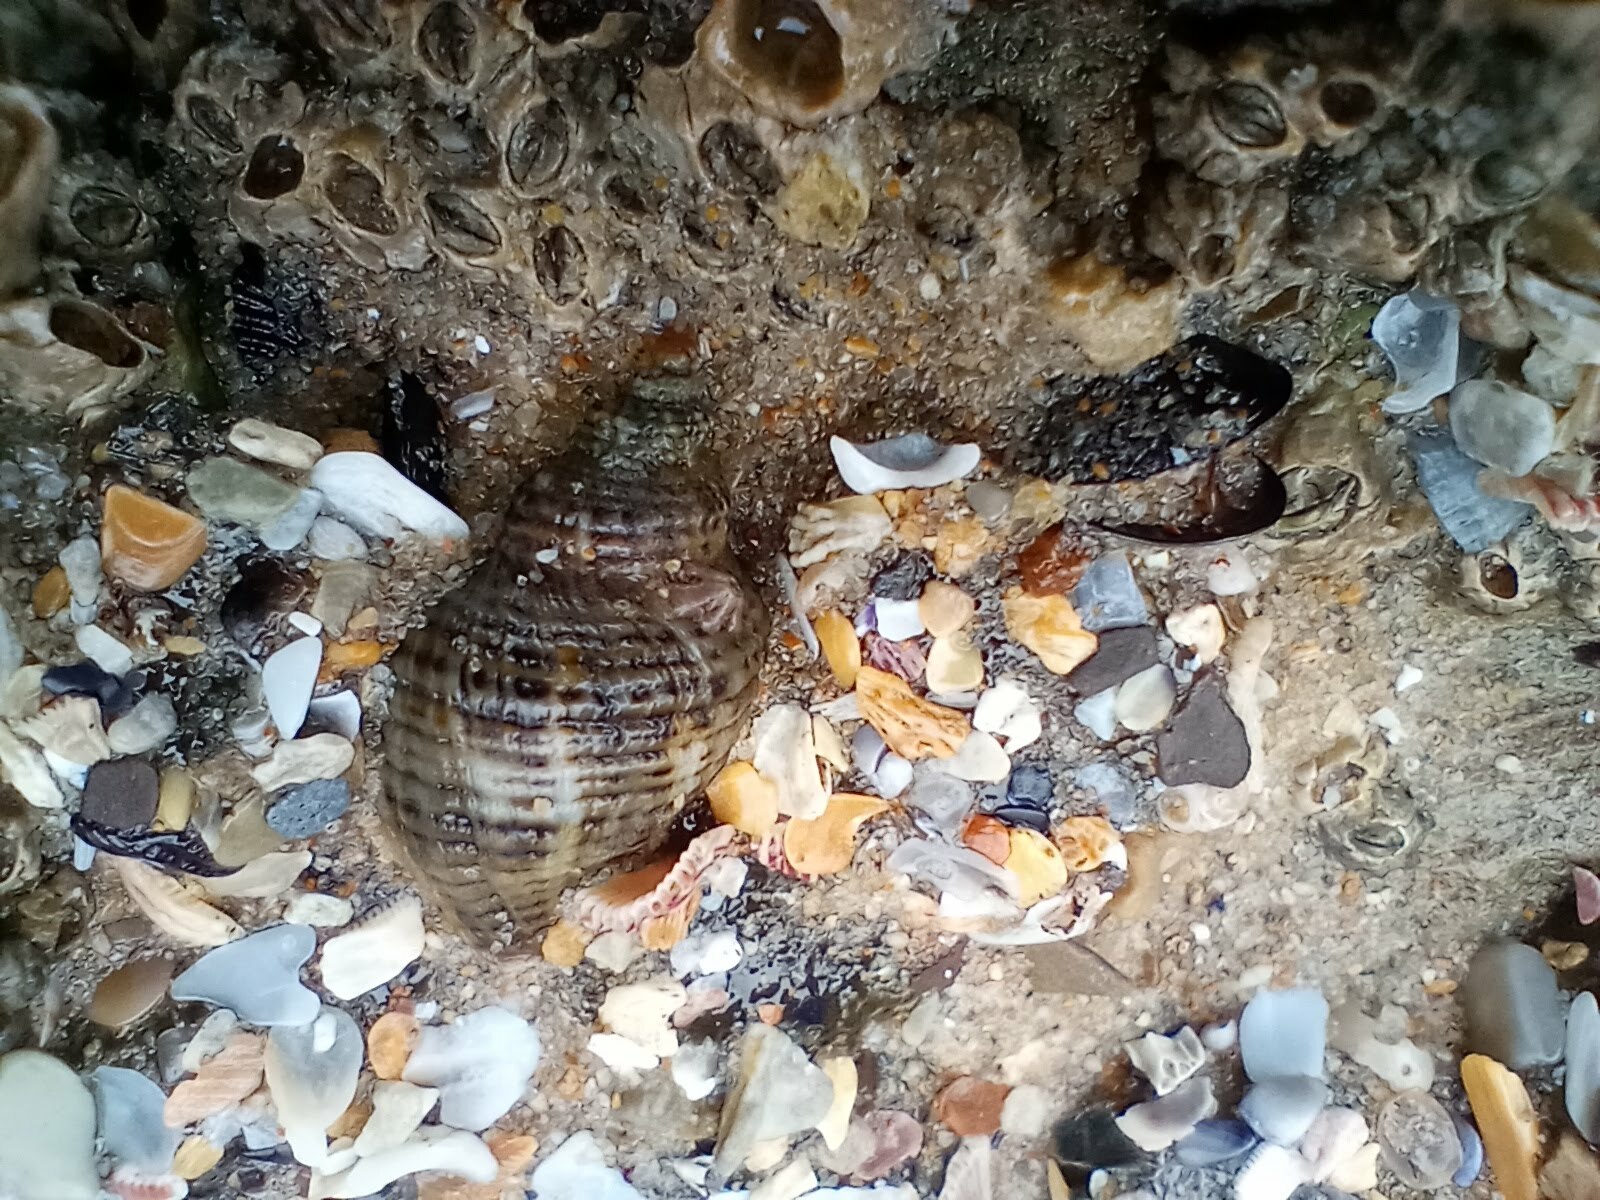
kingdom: Animalia
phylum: Mollusca
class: Gastropoda
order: Neogastropoda
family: Muricidae
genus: Acanthinucella
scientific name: Acanthinucella spirata
